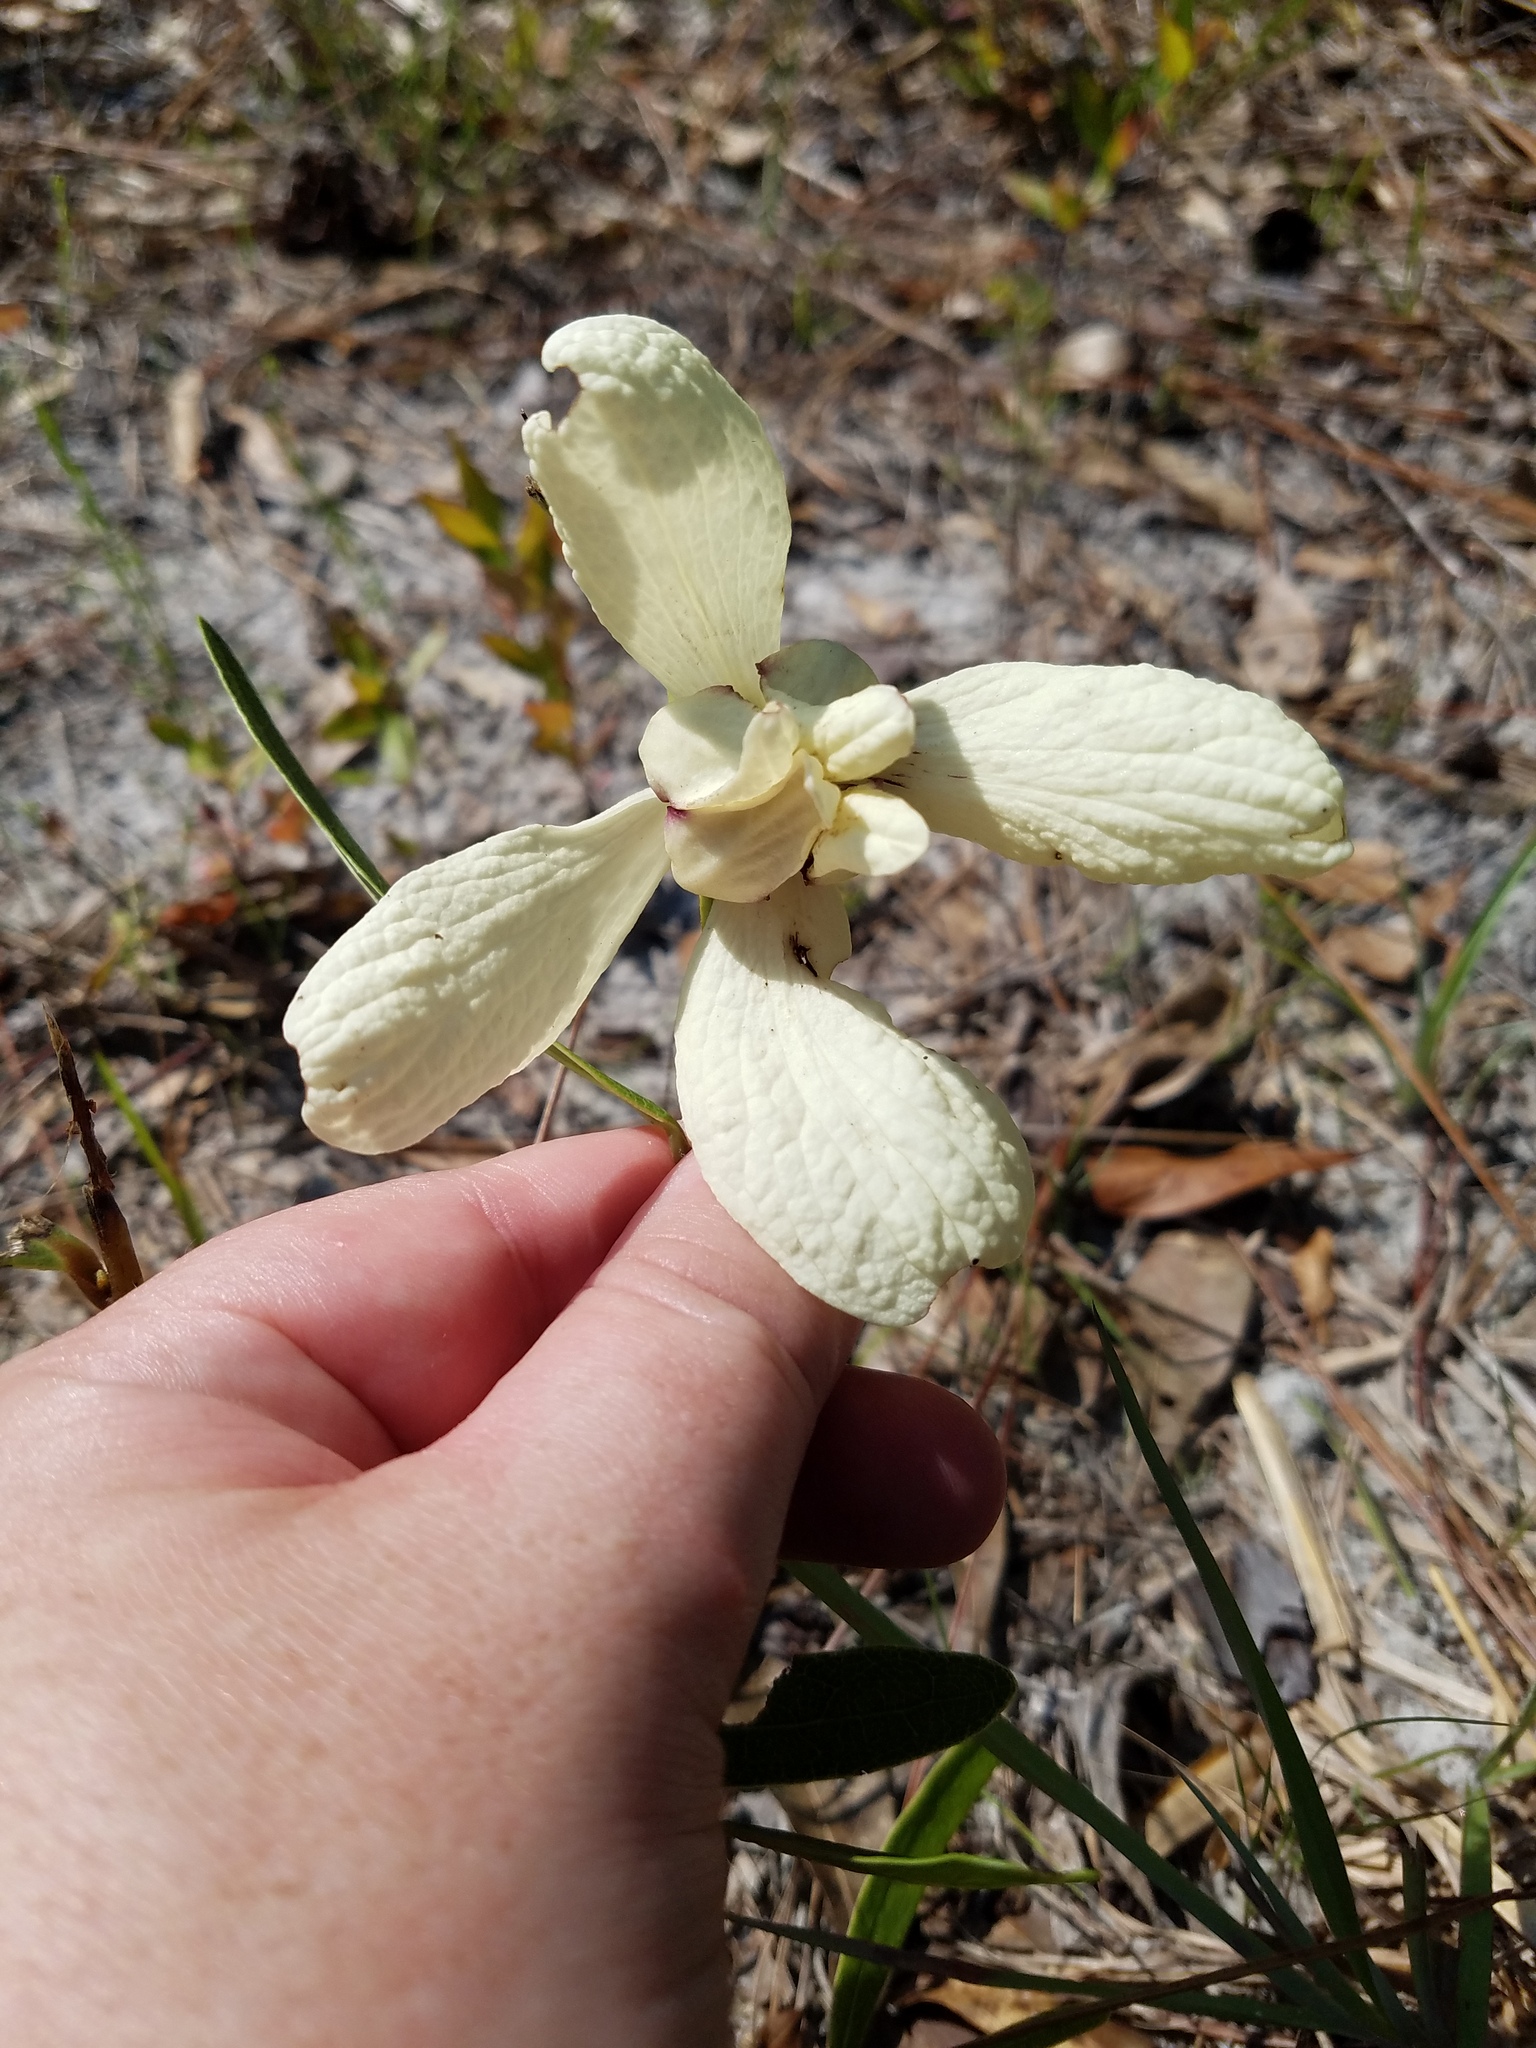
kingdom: Plantae
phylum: Tracheophyta
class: Magnoliopsida
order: Magnoliales
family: Annonaceae
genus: Asimina
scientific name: Asimina longifolia
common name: Polecatbush
